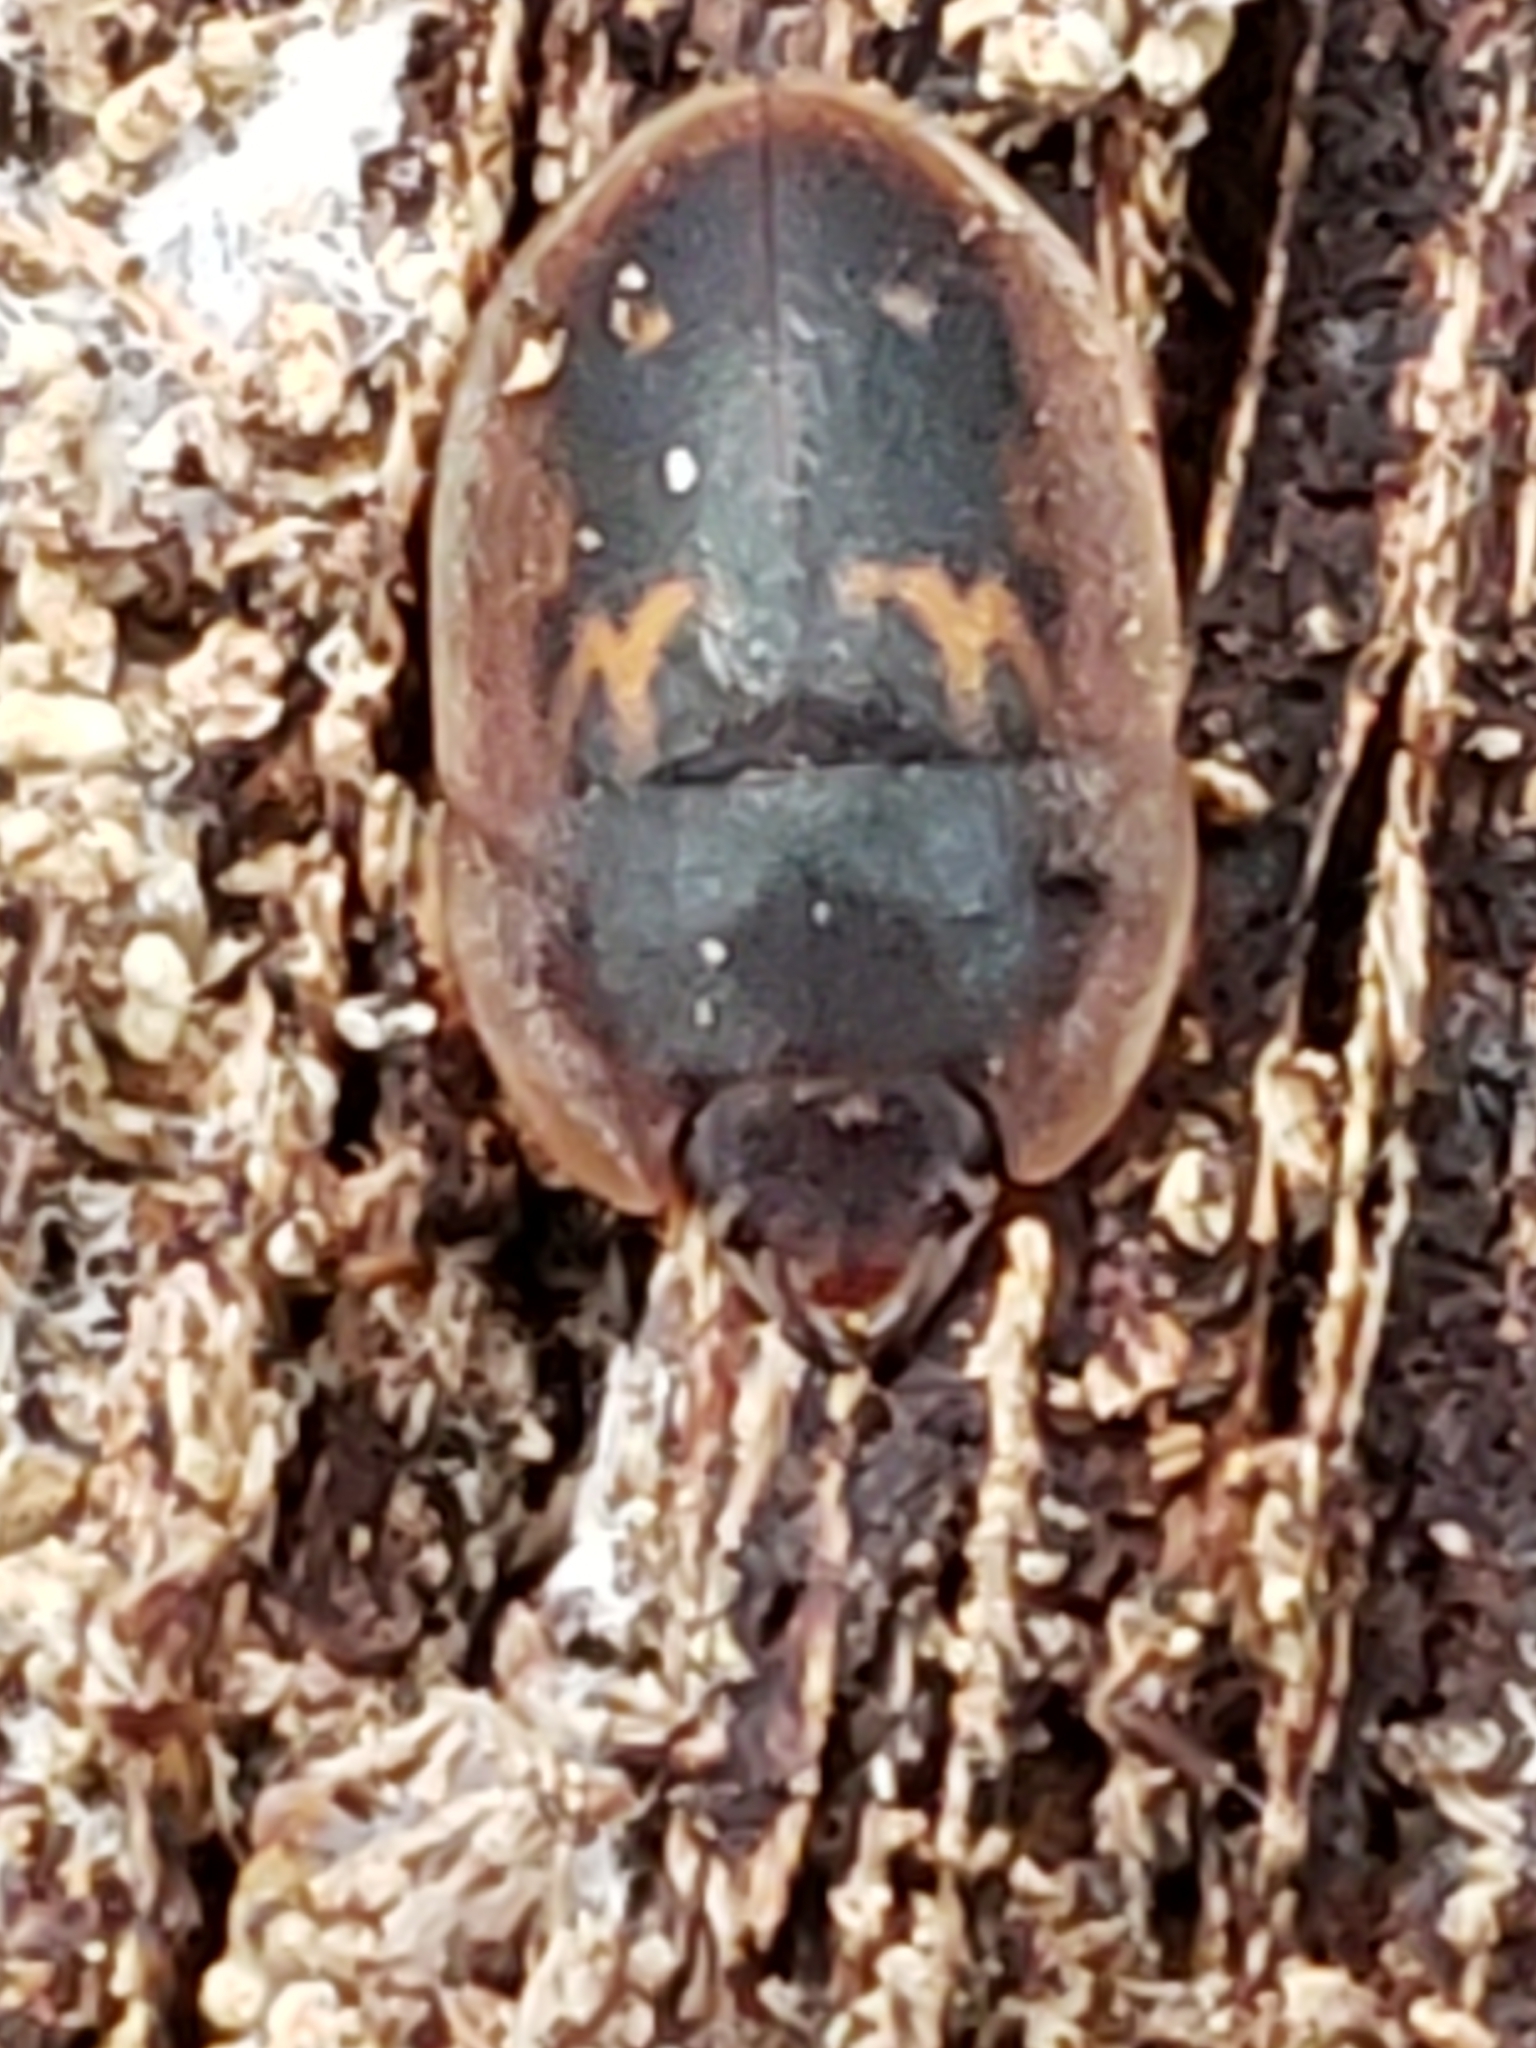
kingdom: Animalia
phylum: Arthropoda
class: Insecta
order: Coleoptera
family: Nitidulidae
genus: Prometopia
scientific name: Prometopia sexmaculata
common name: Six-spotted sap-feeding beetle
